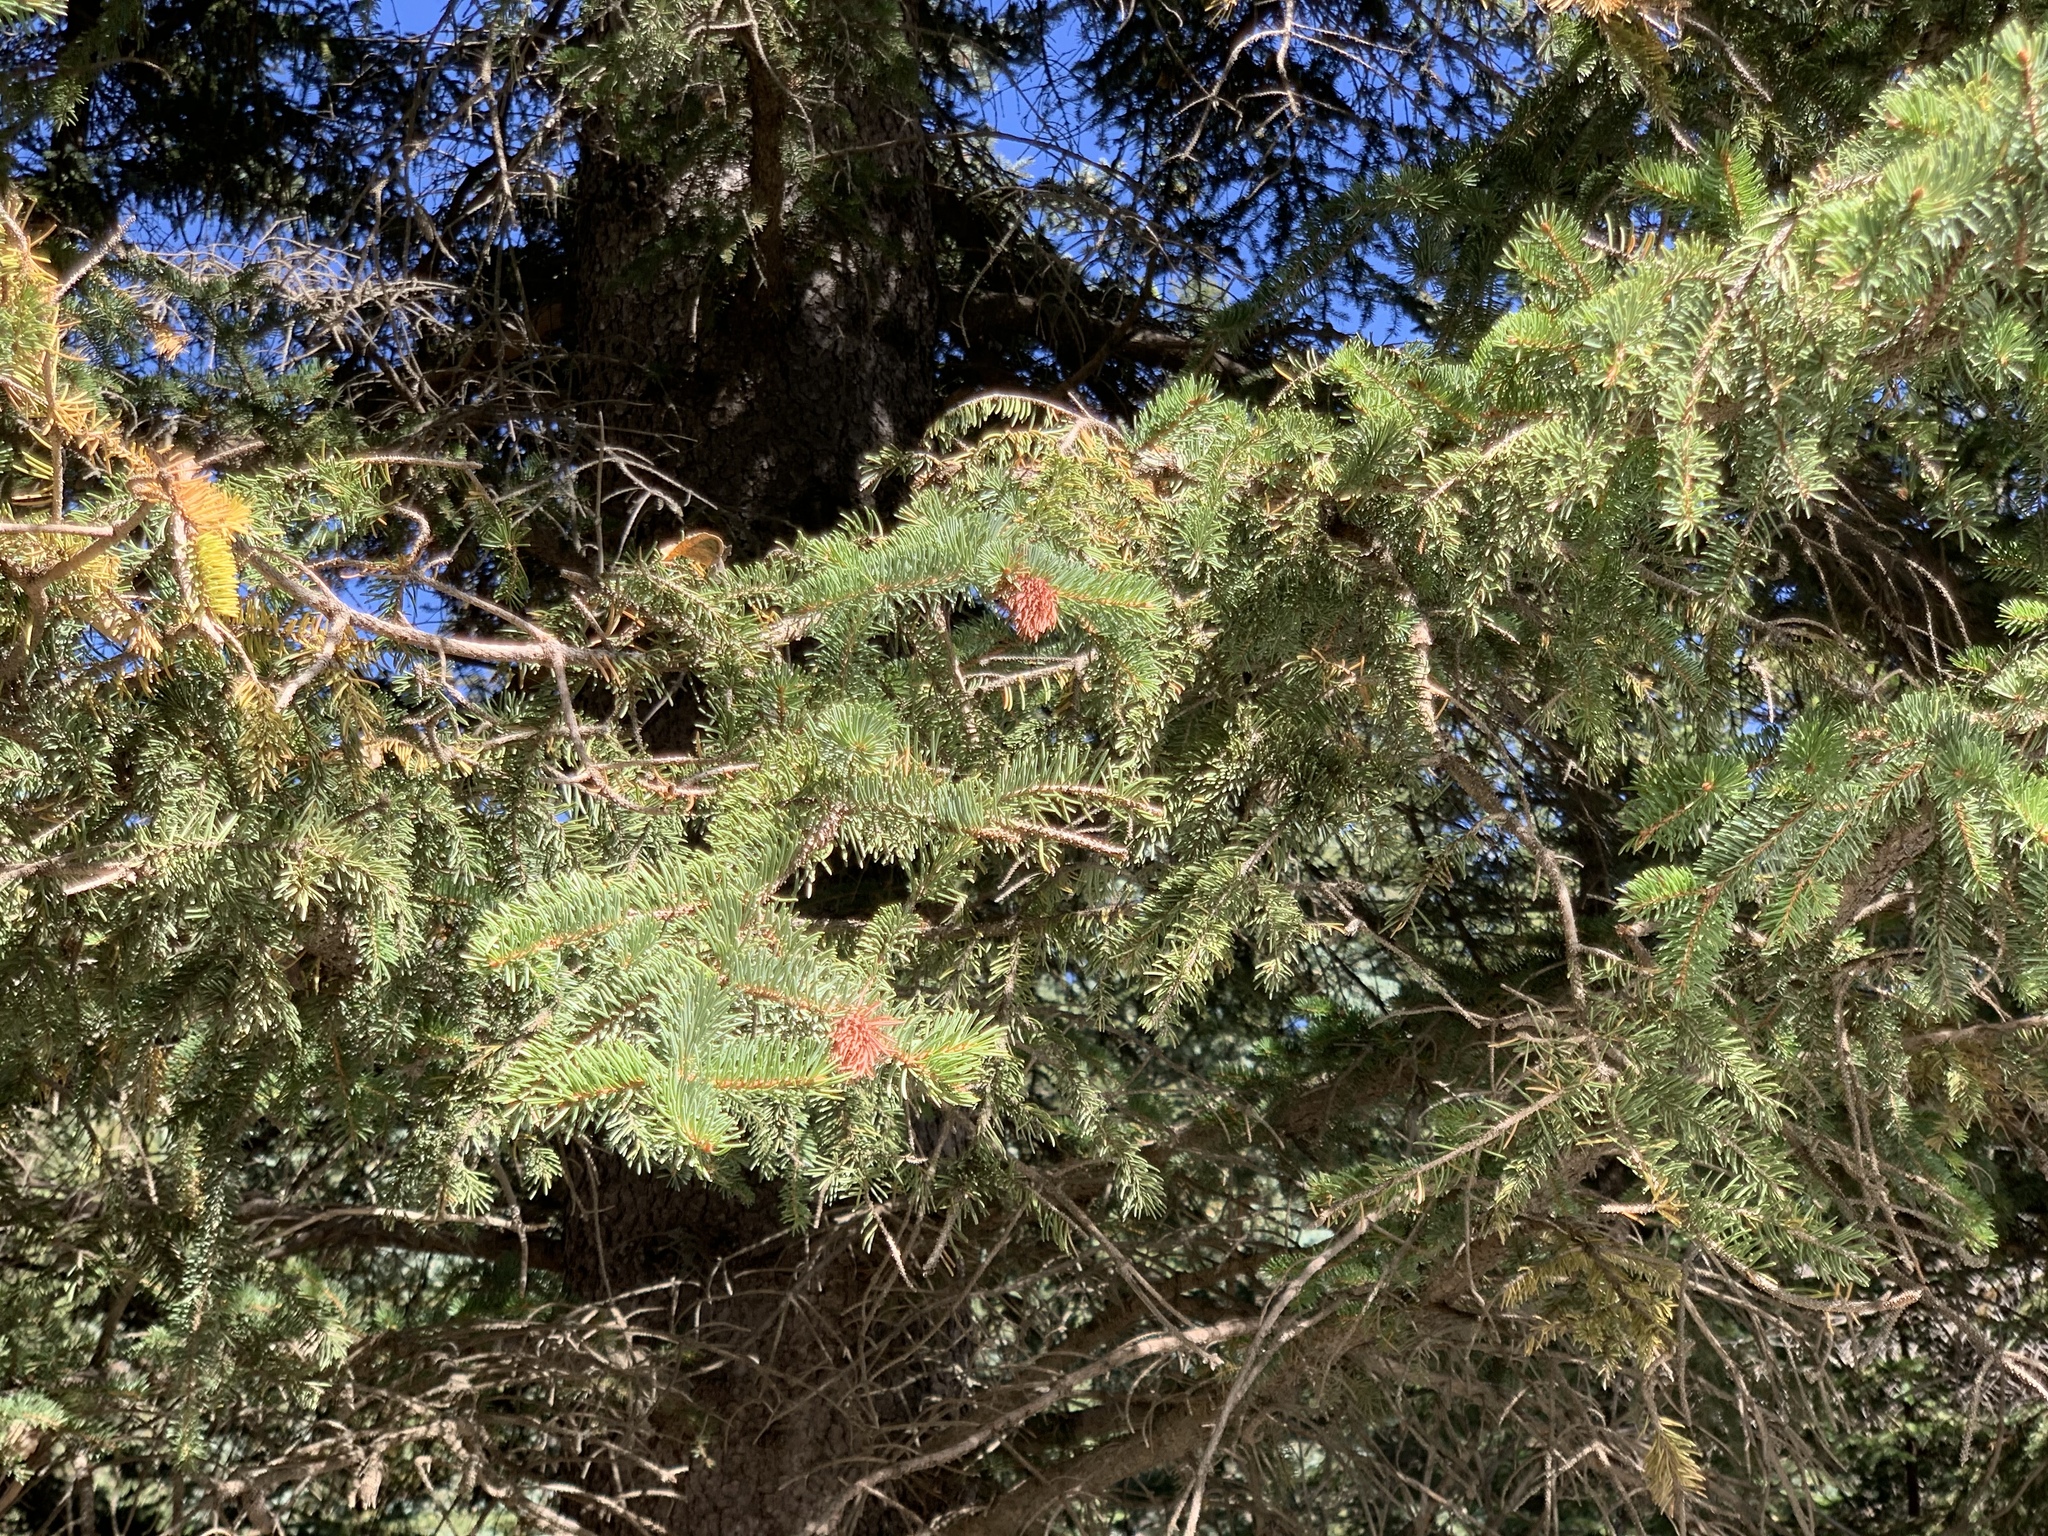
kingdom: Plantae
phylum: Tracheophyta
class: Pinopsida
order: Pinales
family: Pinaceae
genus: Picea
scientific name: Picea engelmannii
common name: Engelmann spruce
